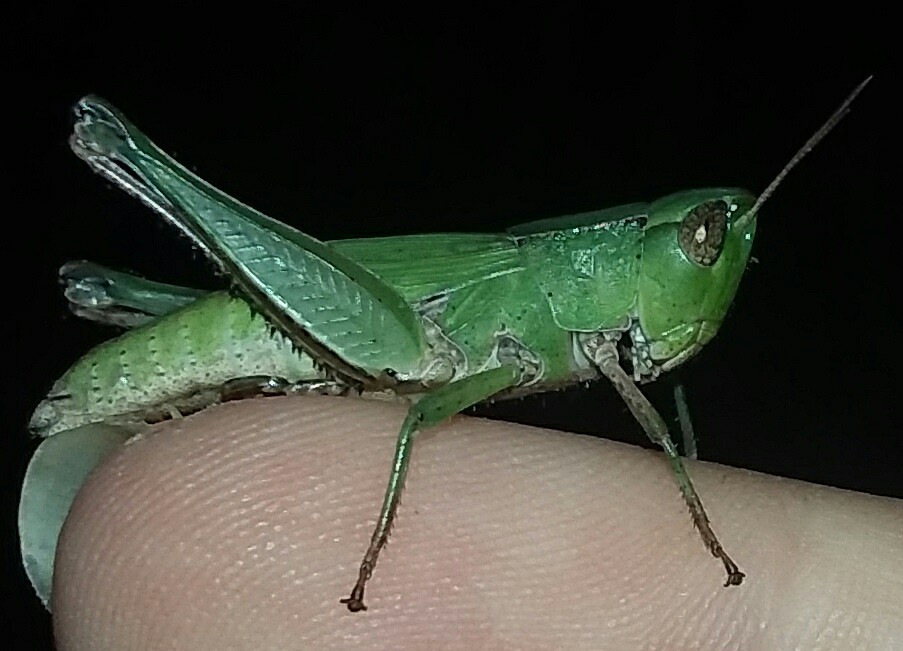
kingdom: Animalia
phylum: Arthropoda
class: Insecta
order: Orthoptera
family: Acrididae
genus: Dichromorpha
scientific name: Dichromorpha viridis
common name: Short-winged green grasshopper
